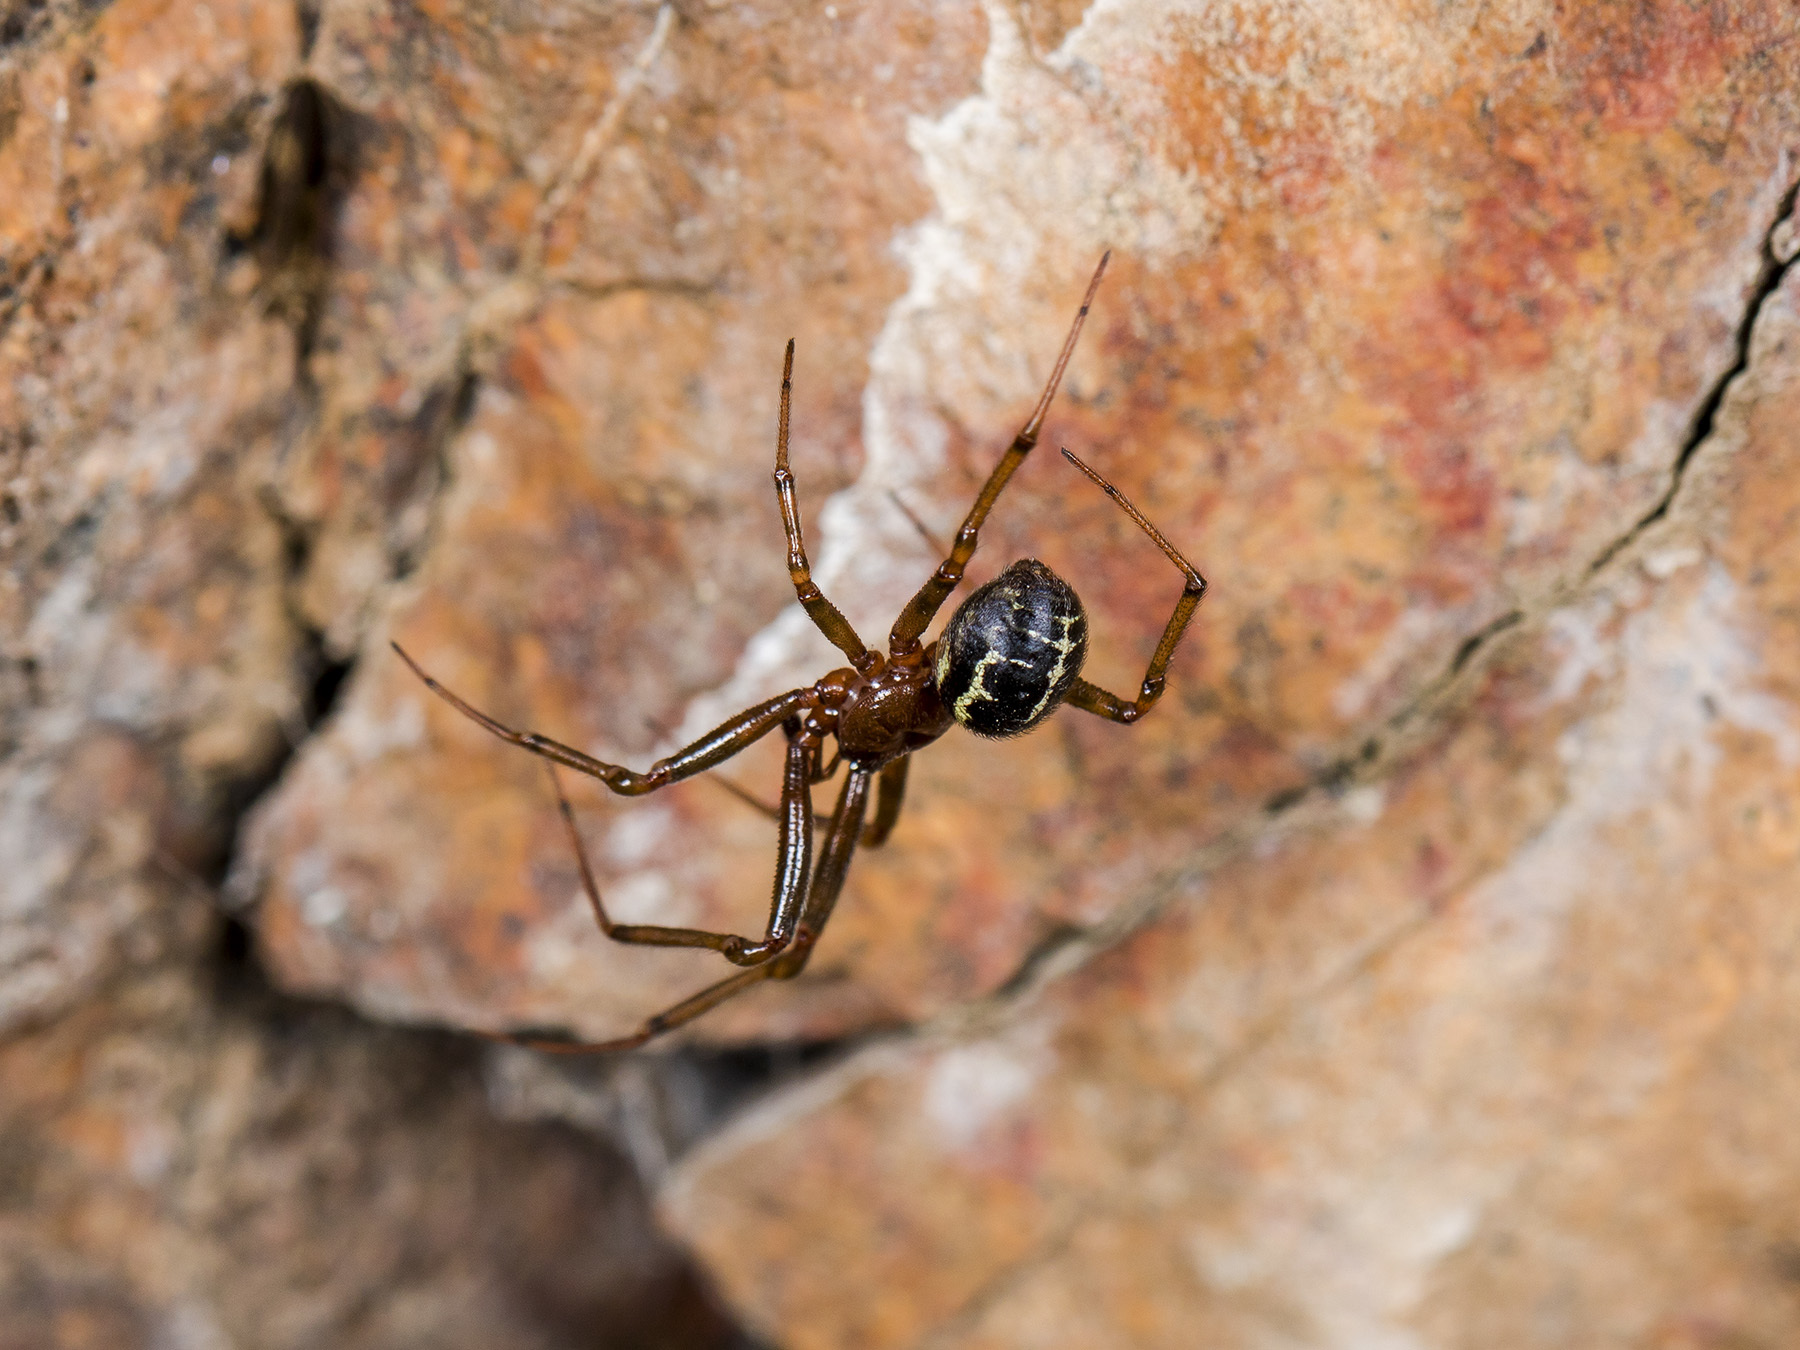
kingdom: Animalia
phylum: Arthropoda
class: Arachnida
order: Araneae
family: Theridiidae
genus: Steatoda
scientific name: Steatoda castanea
